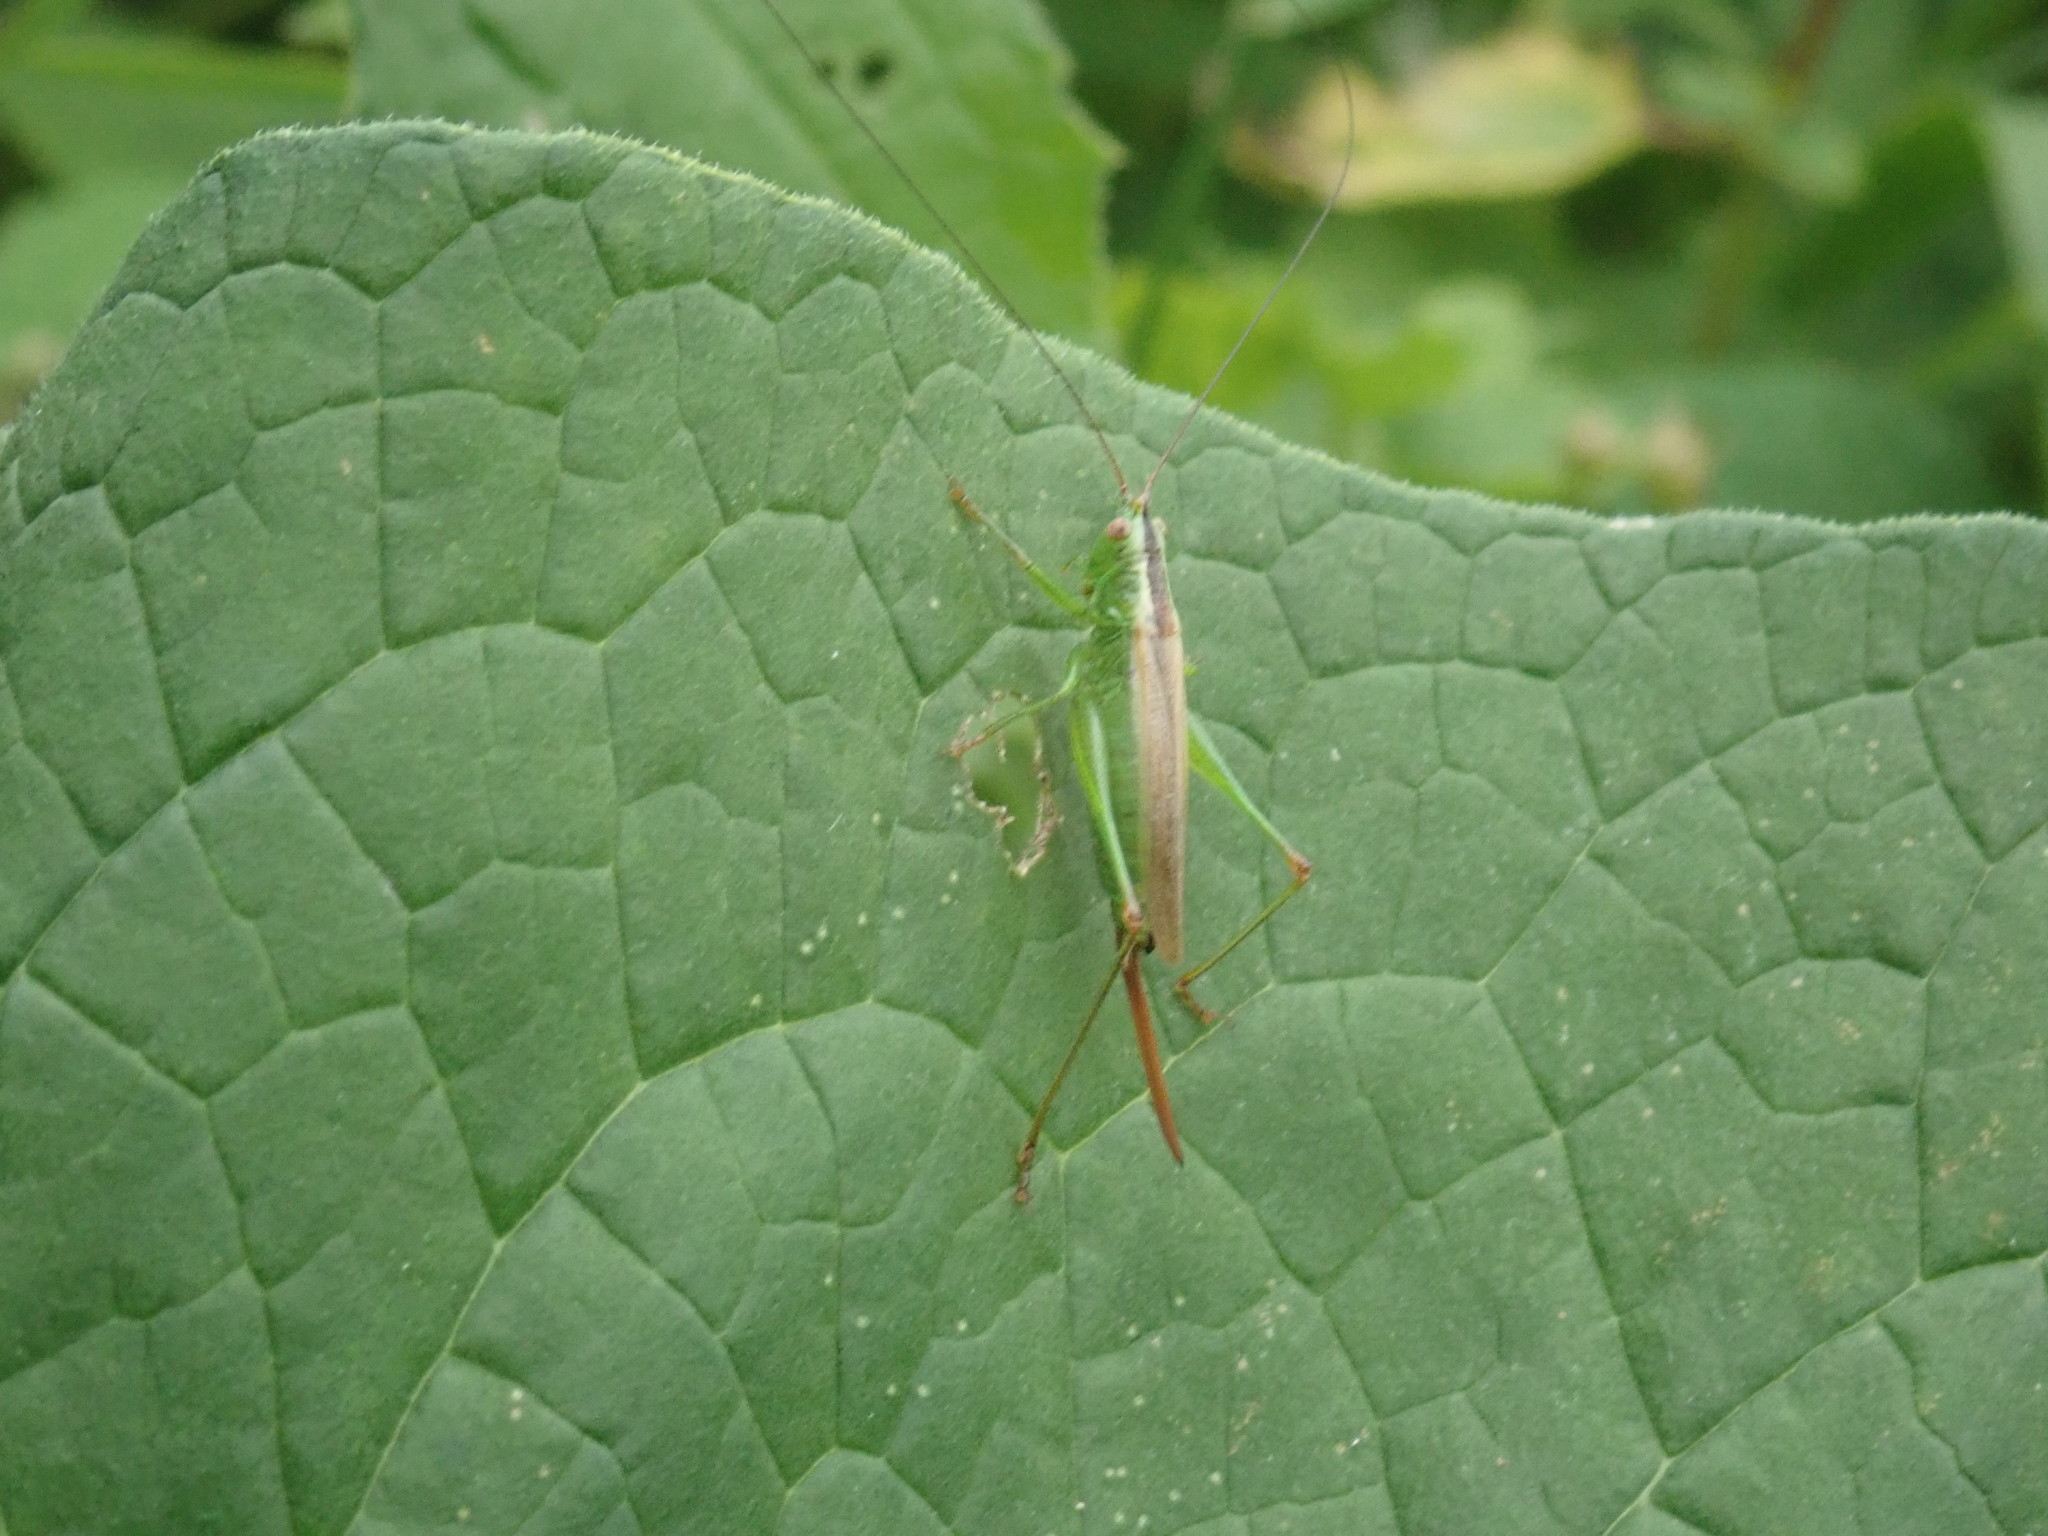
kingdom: Animalia
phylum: Arthropoda
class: Insecta
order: Orthoptera
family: Tettigoniidae
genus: Conocephalus
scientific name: Conocephalus fuscus
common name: Long-winged conehead
